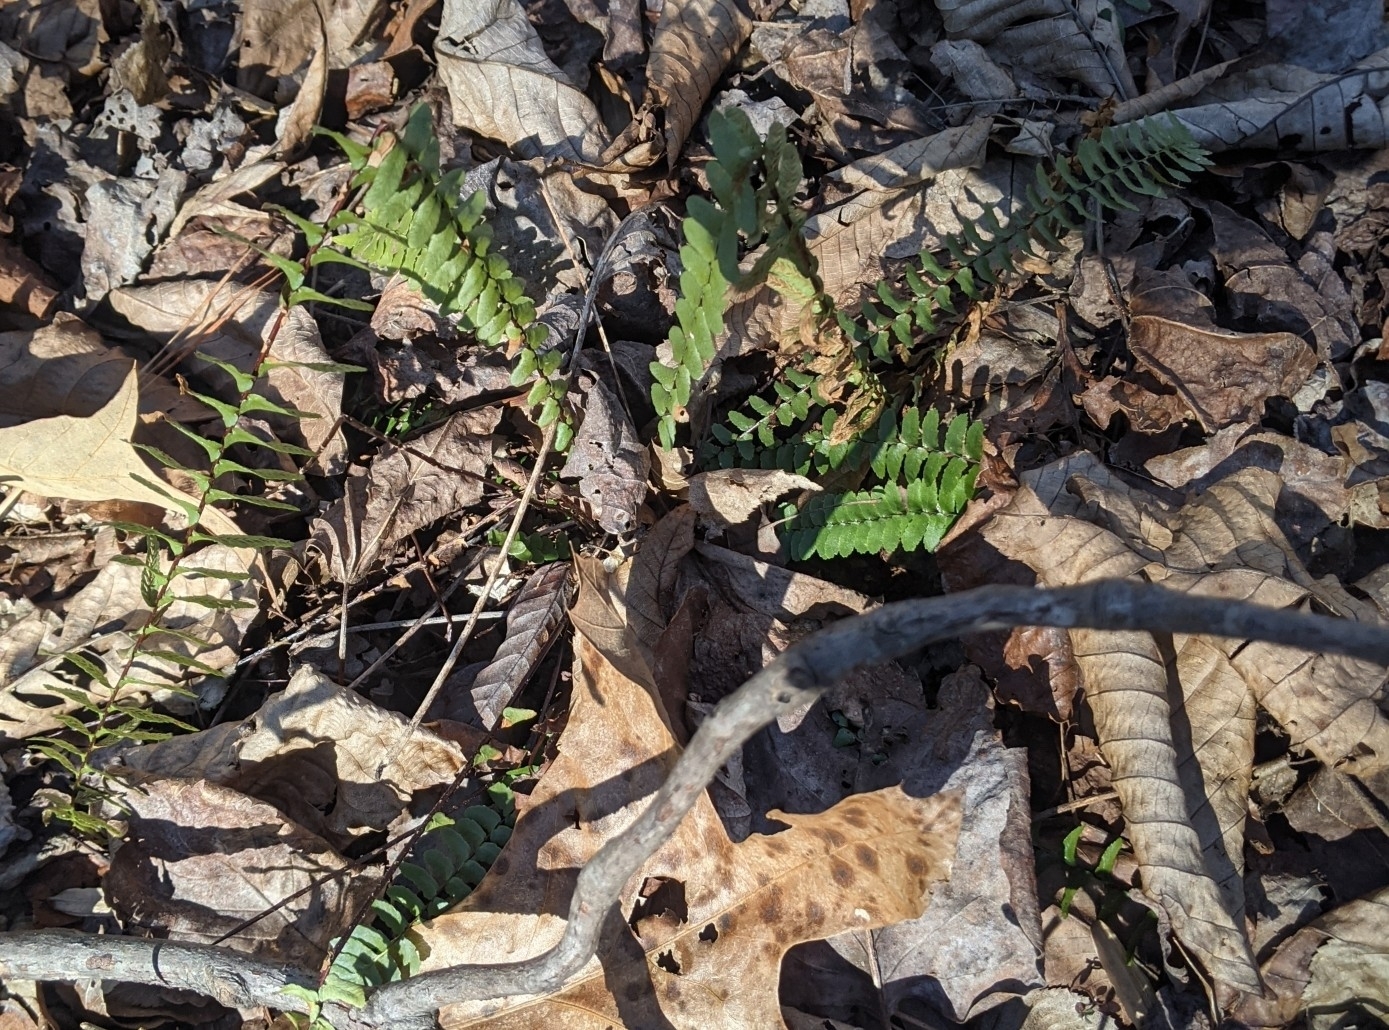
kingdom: Plantae
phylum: Tracheophyta
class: Polypodiopsida
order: Polypodiales
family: Aspleniaceae
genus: Asplenium
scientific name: Asplenium platyneuron
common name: Ebony spleenwort
